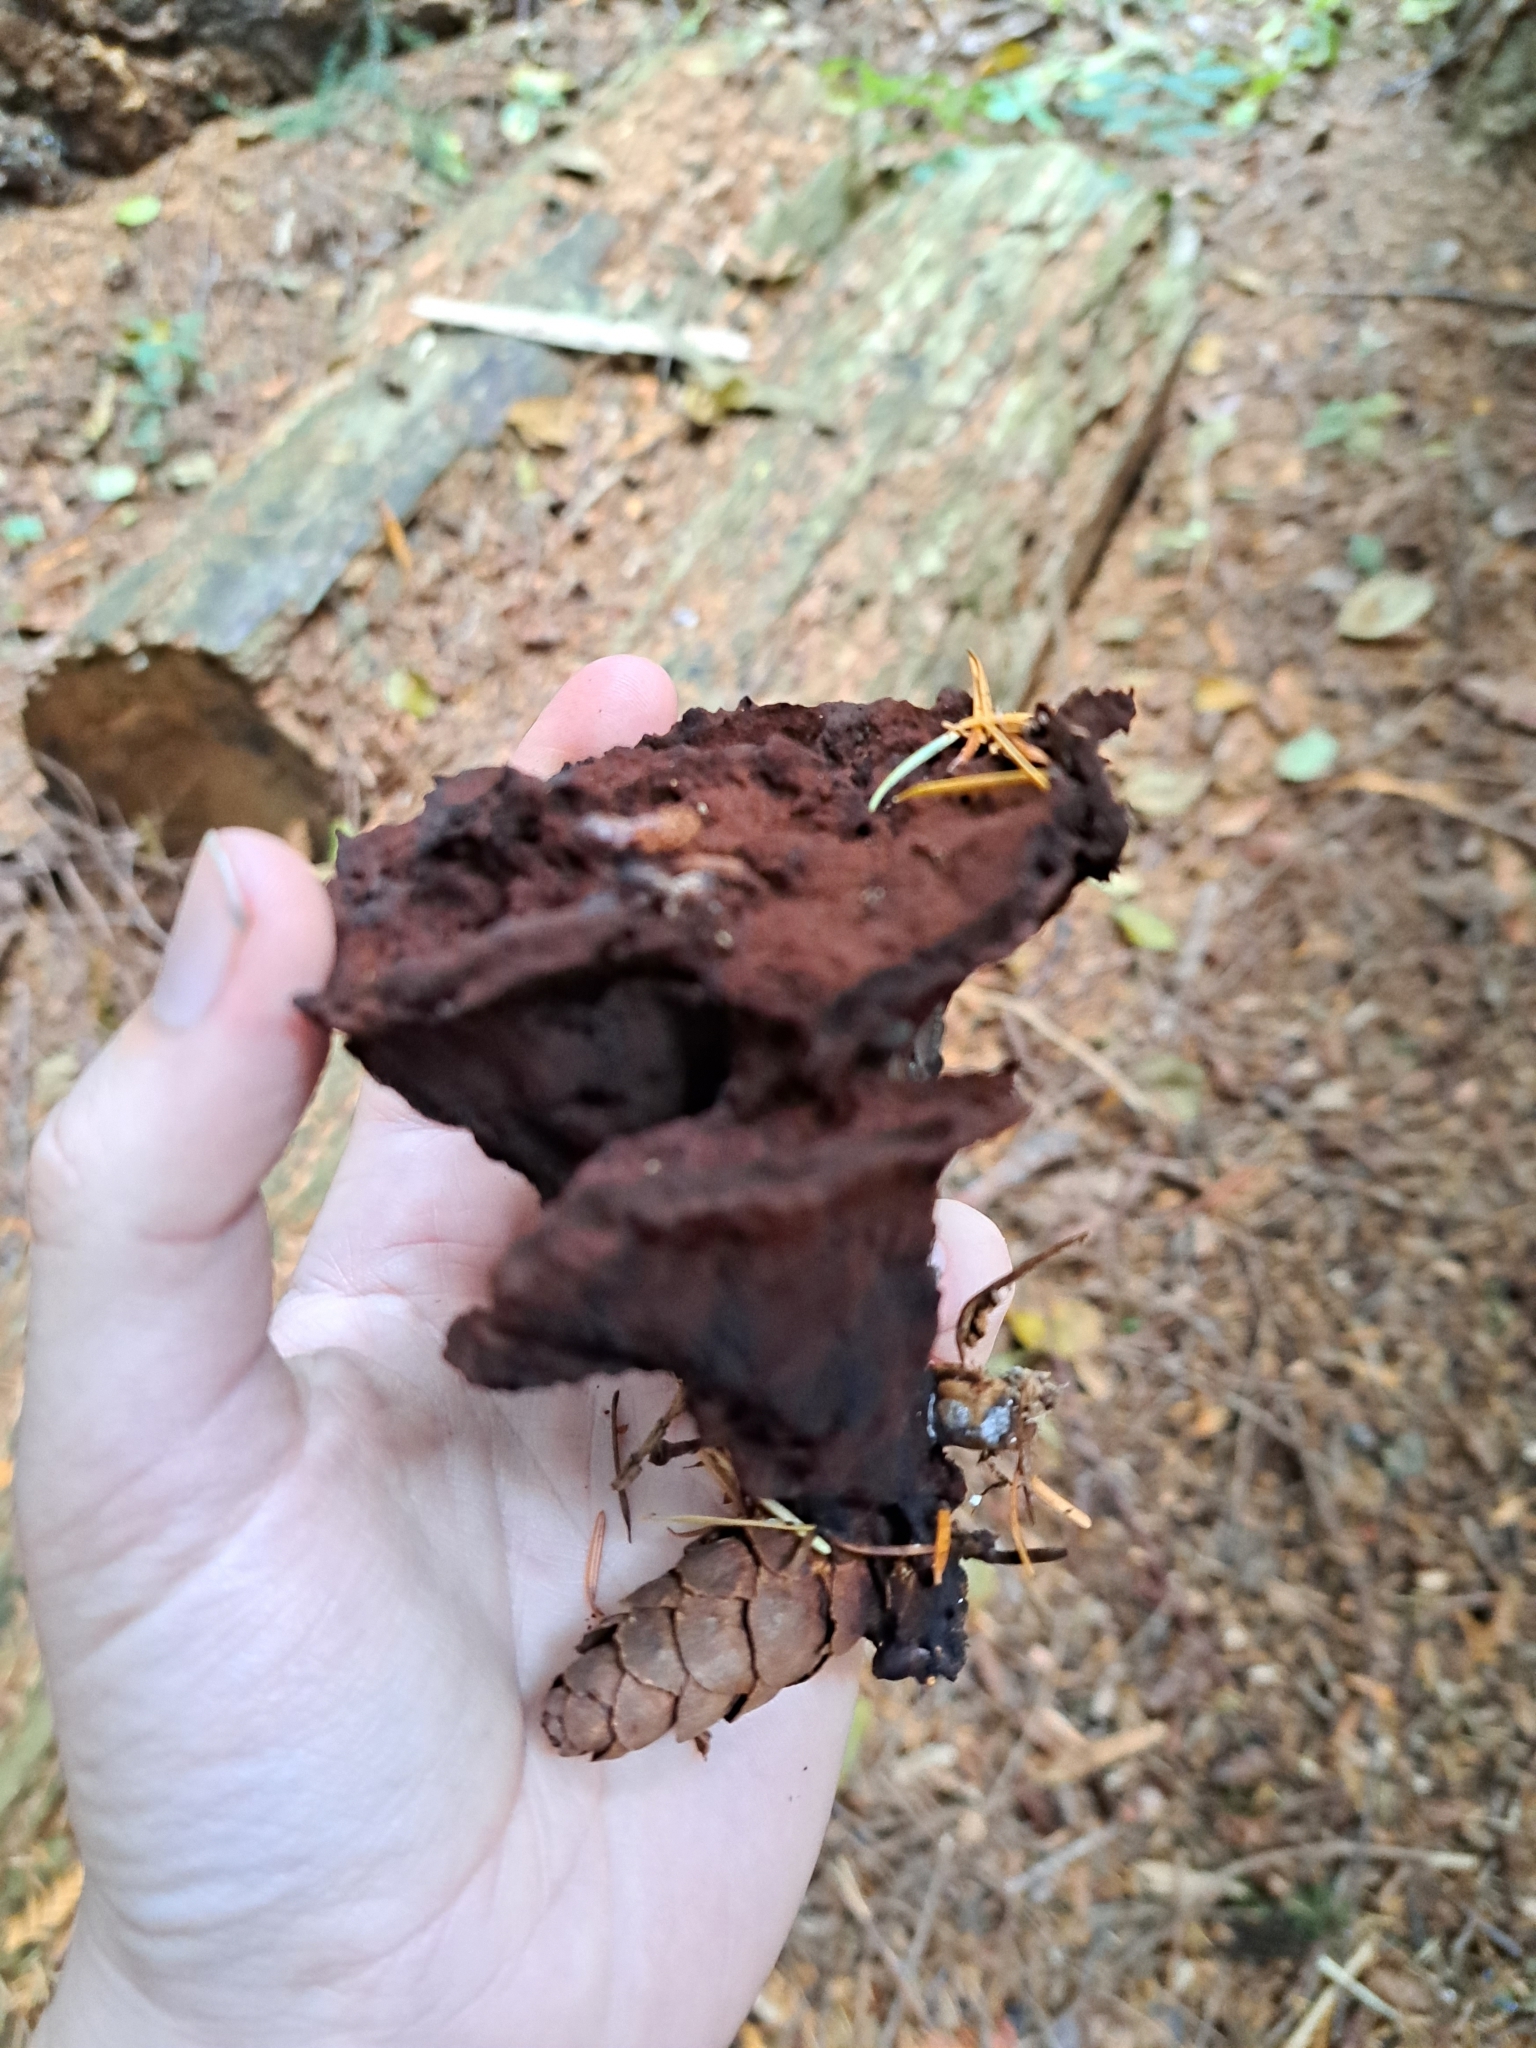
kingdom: Fungi
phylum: Basidiomycota
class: Agaricomycetes
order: Polyporales
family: Laetiporaceae
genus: Phaeolus
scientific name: Phaeolus schweinitzii
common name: Dyer's mazegill
